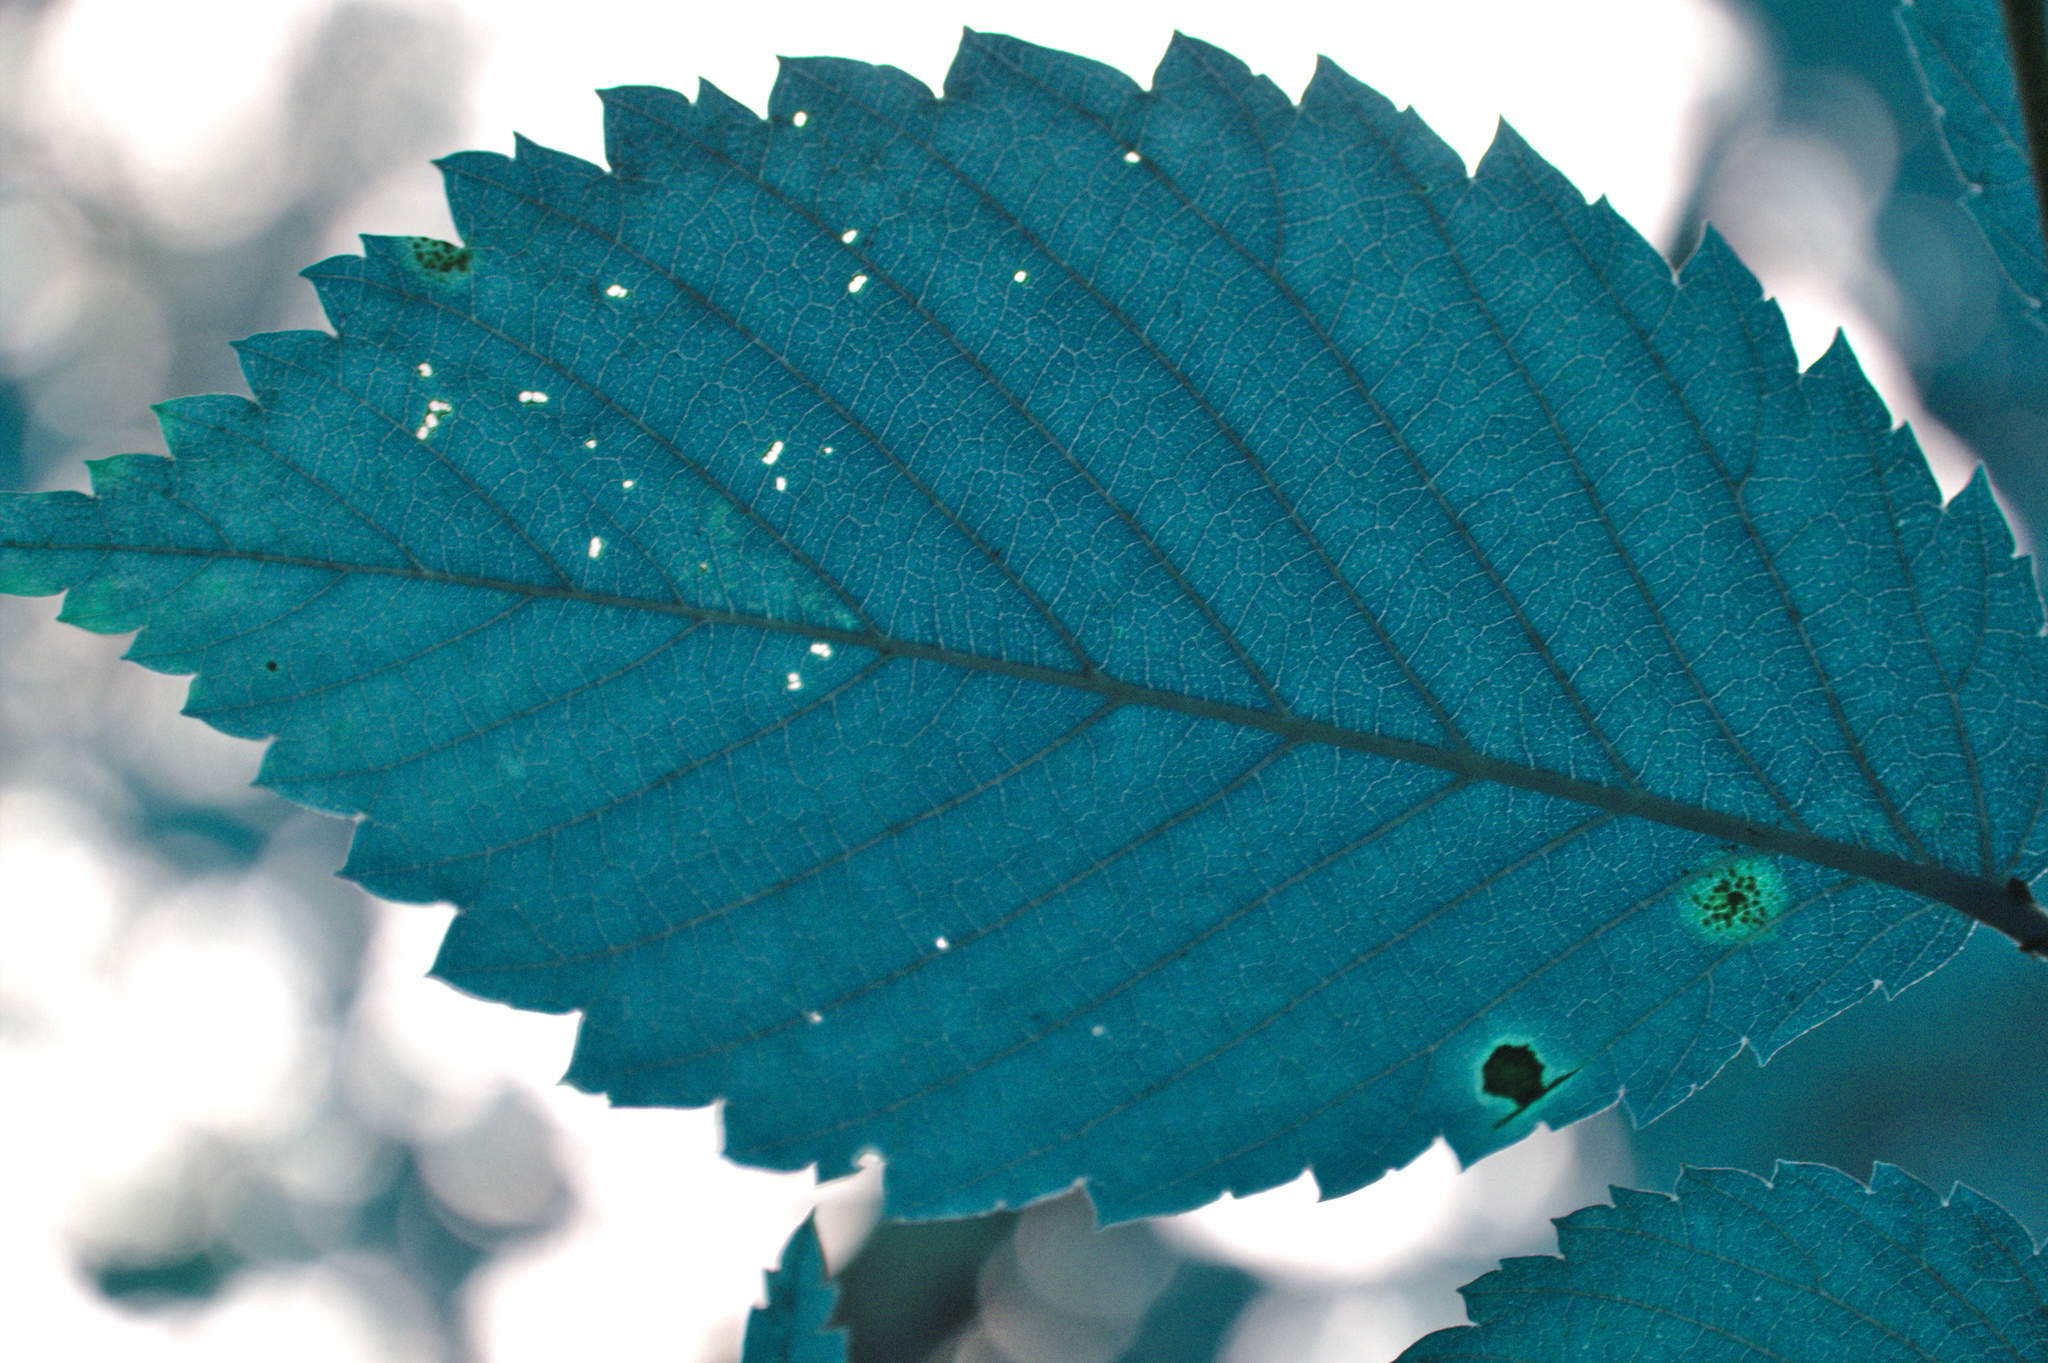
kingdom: Plantae
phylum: Tracheophyta
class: Magnoliopsida
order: Rosales
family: Ulmaceae
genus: Ulmus
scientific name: Ulmus americana
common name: American elm
